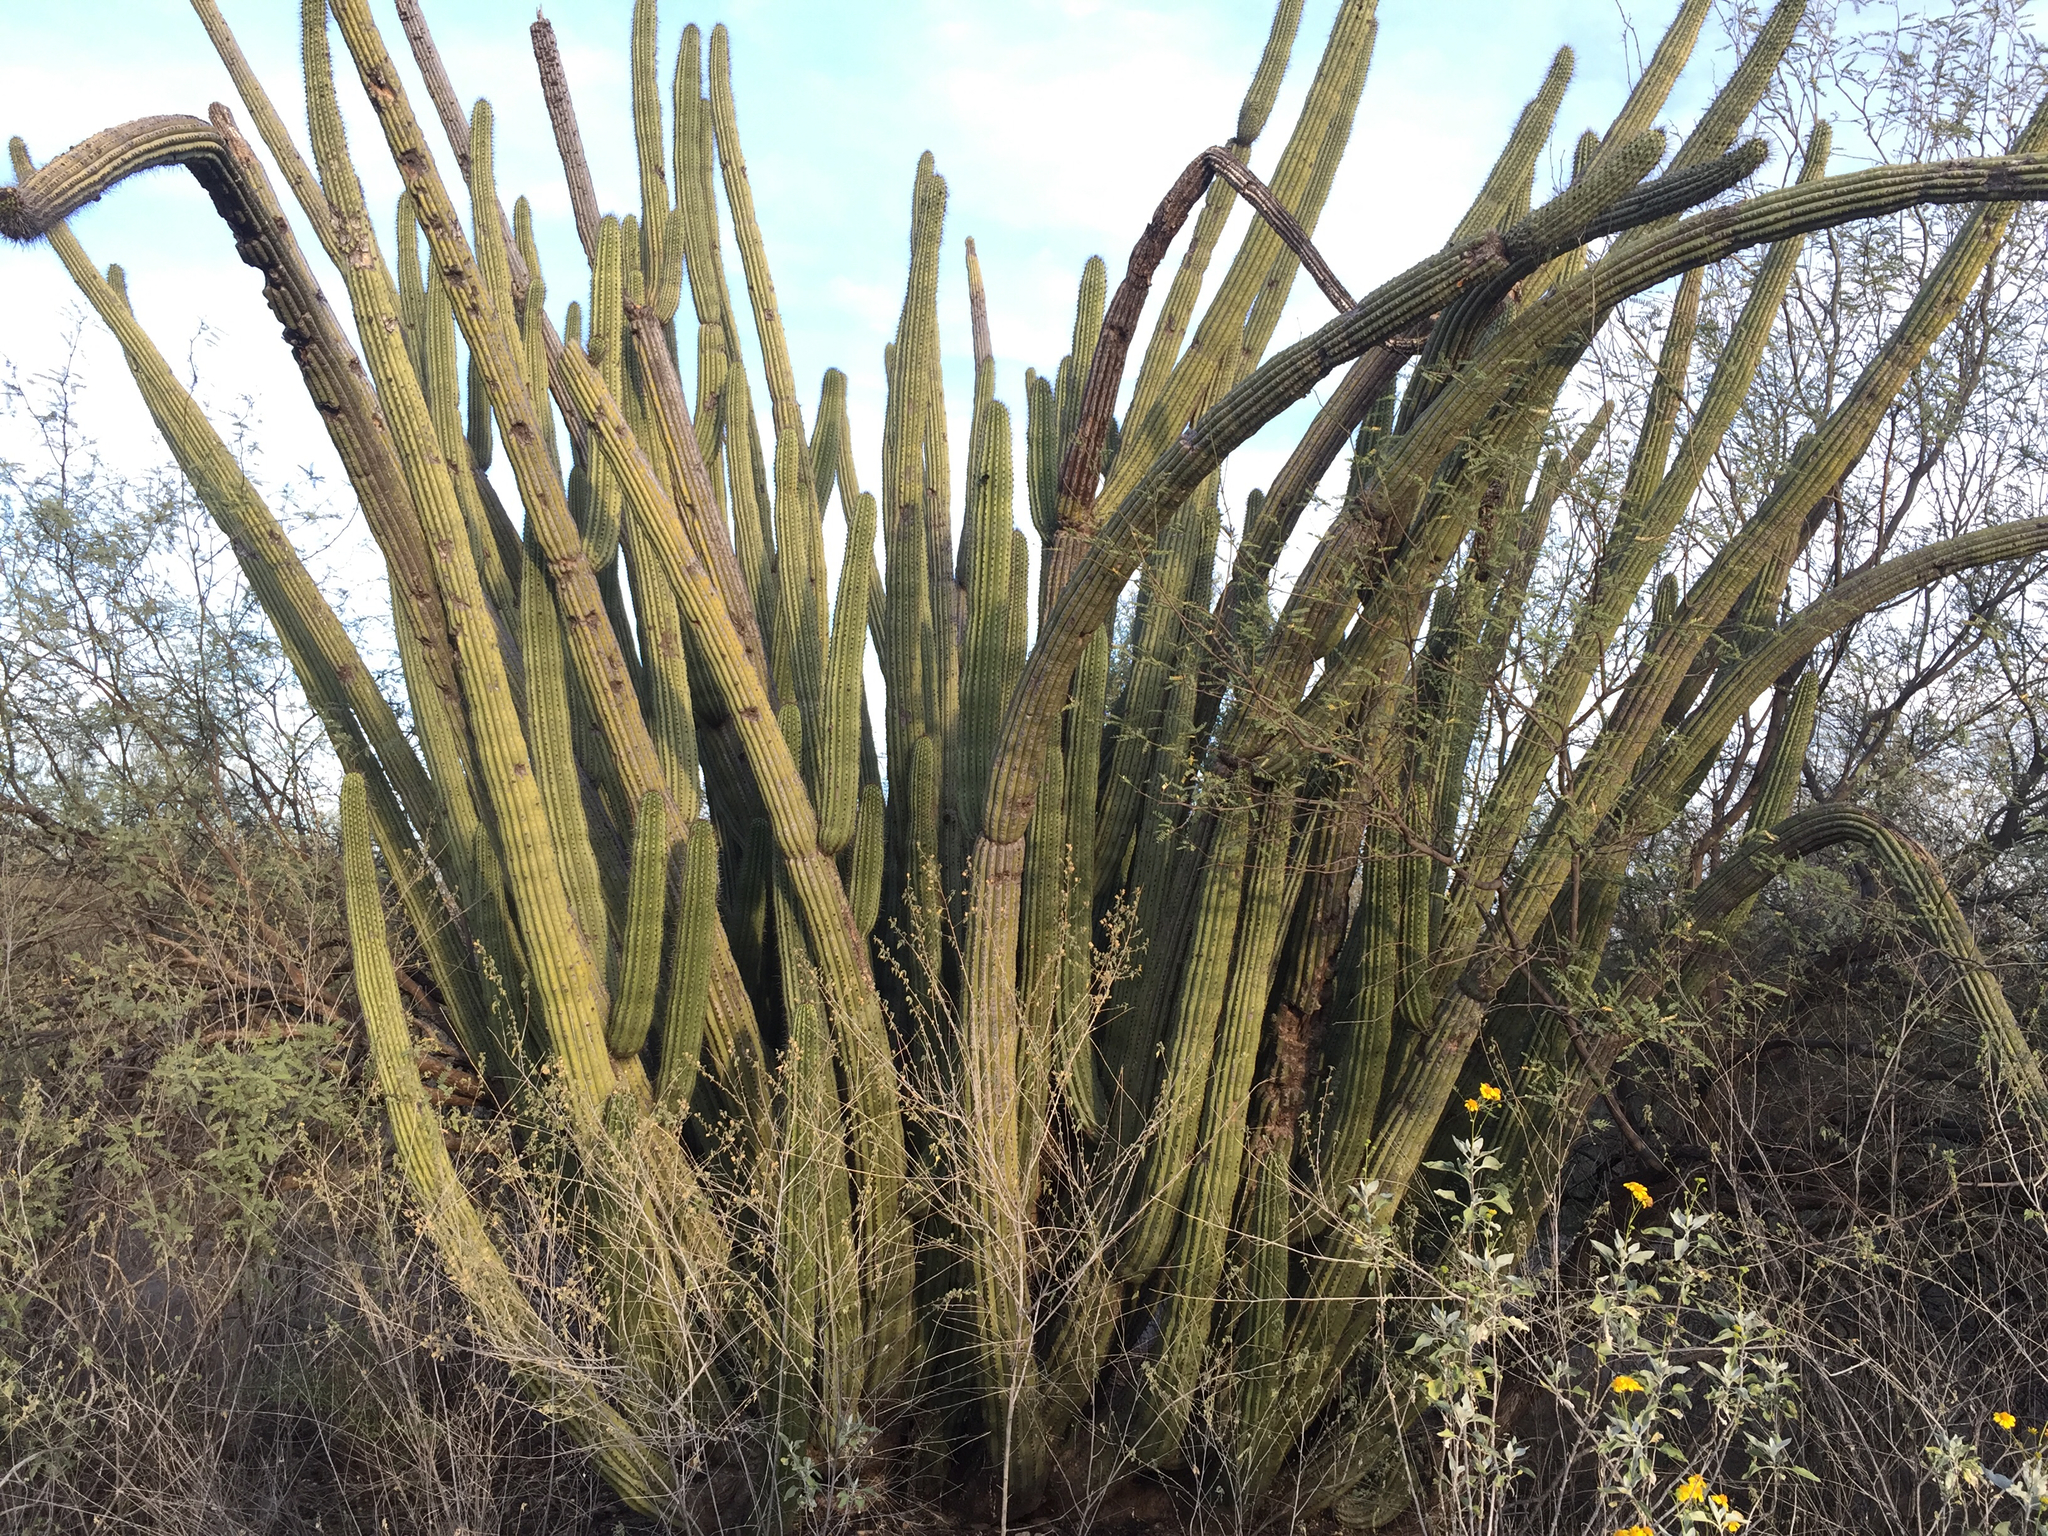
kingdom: Plantae
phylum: Tracheophyta
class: Magnoliopsida
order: Caryophyllales
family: Cactaceae
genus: Stenocereus
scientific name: Stenocereus thurberi
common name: Organ pipe cactus
